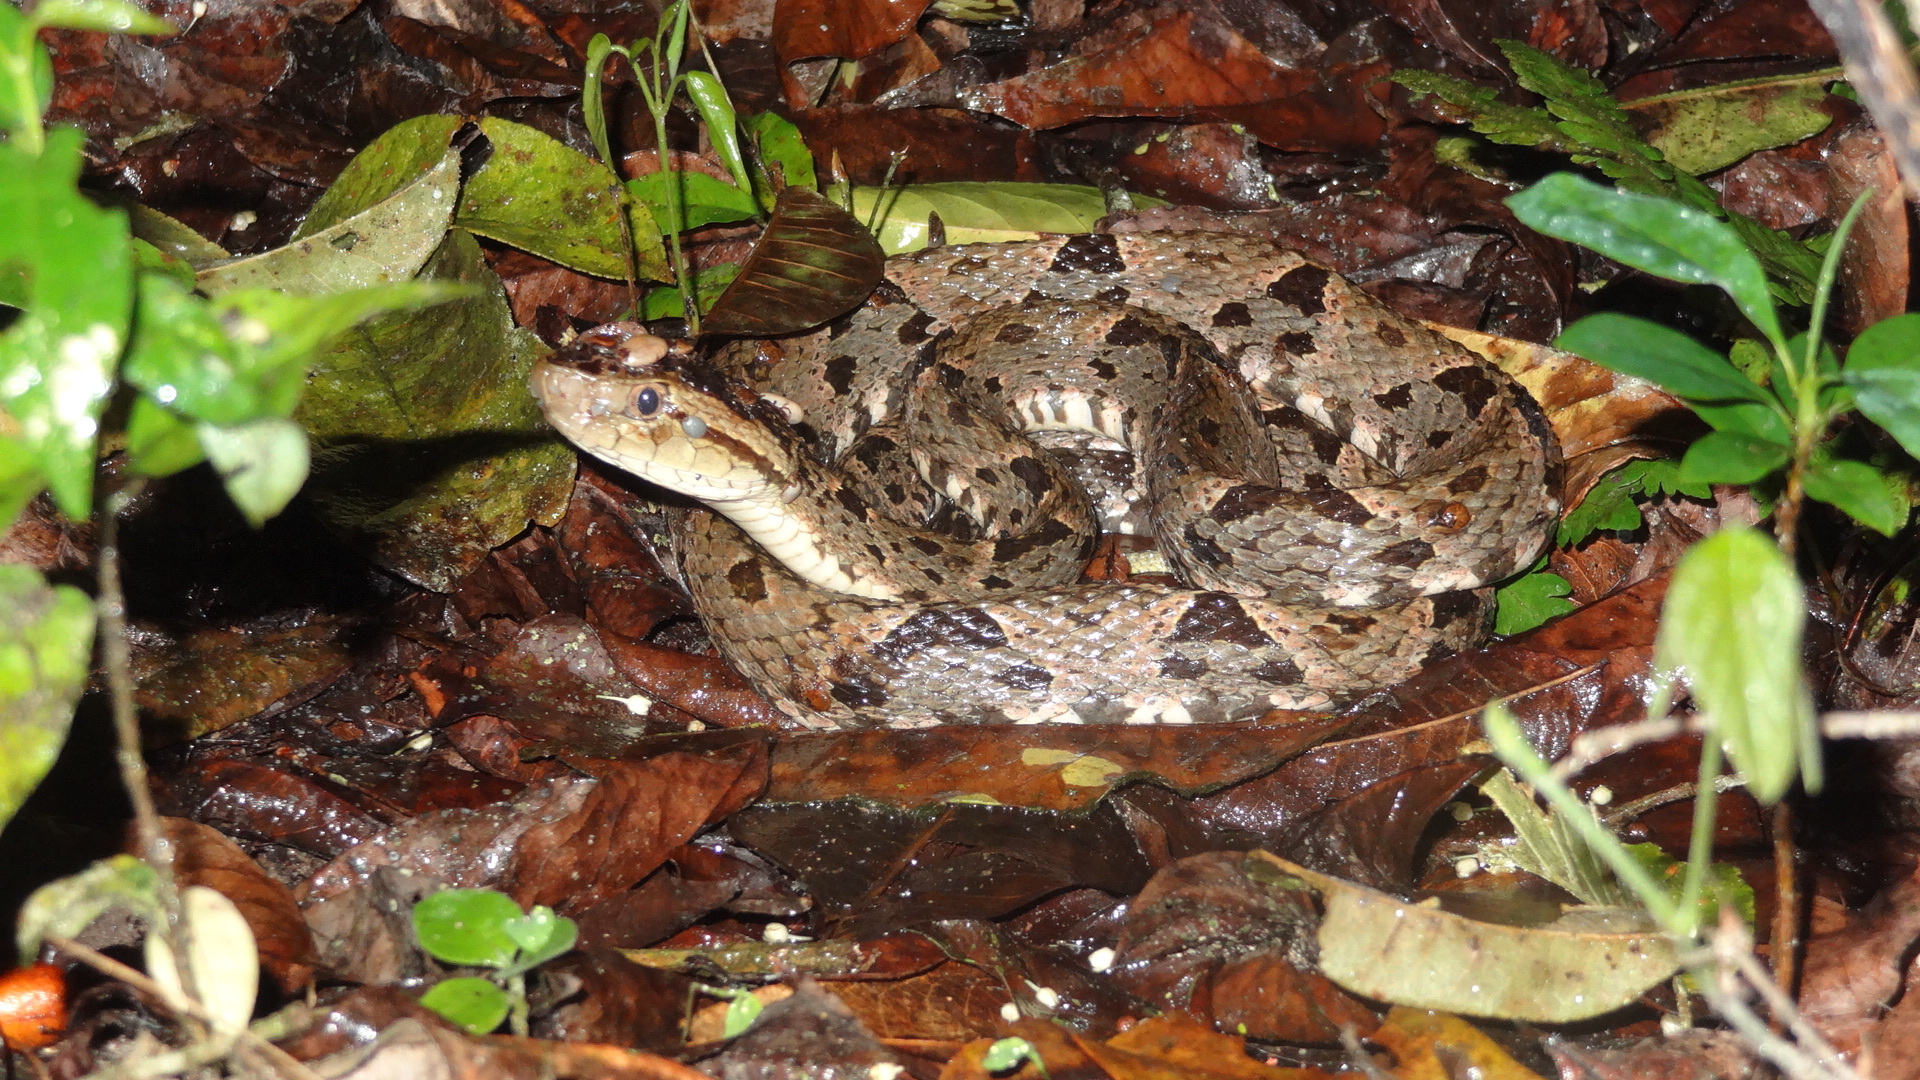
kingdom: Animalia
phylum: Chordata
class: Squamata
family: Viperidae
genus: Bothrops
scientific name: Bothrops asper
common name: Terciopelo
